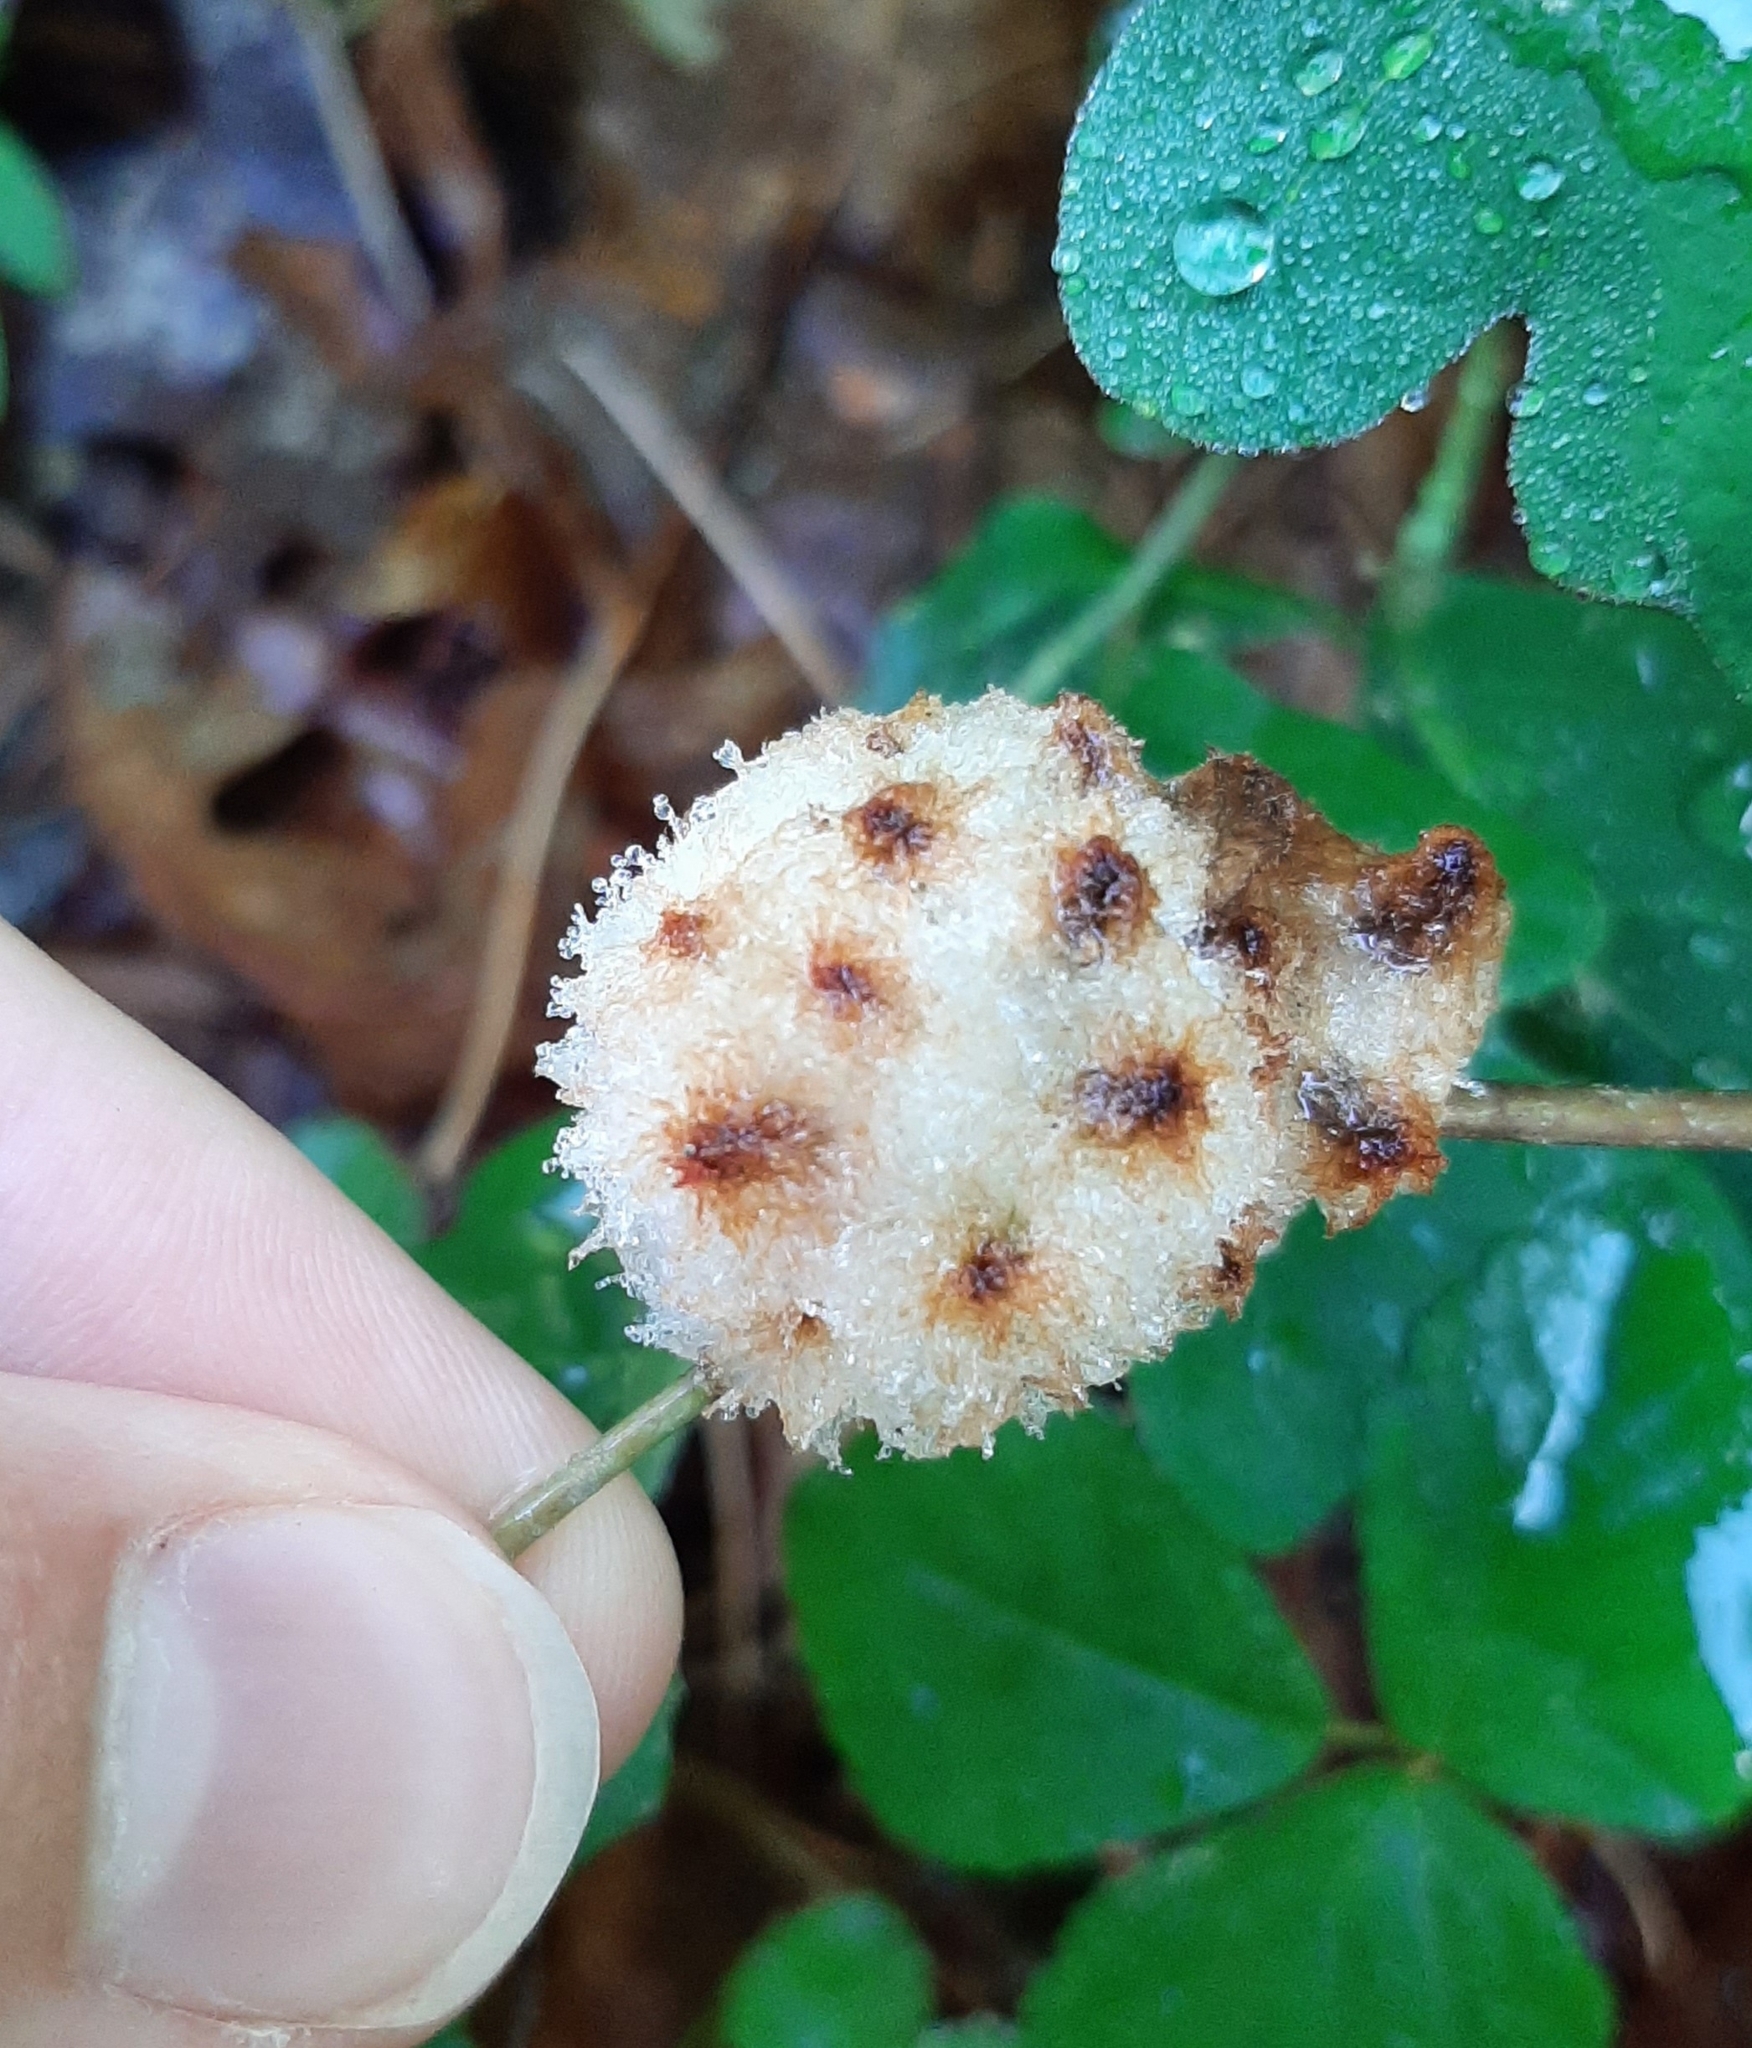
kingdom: Animalia
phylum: Arthropoda
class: Insecta
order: Hymenoptera
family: Cynipidae
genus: Callirhytis
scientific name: Callirhytis
